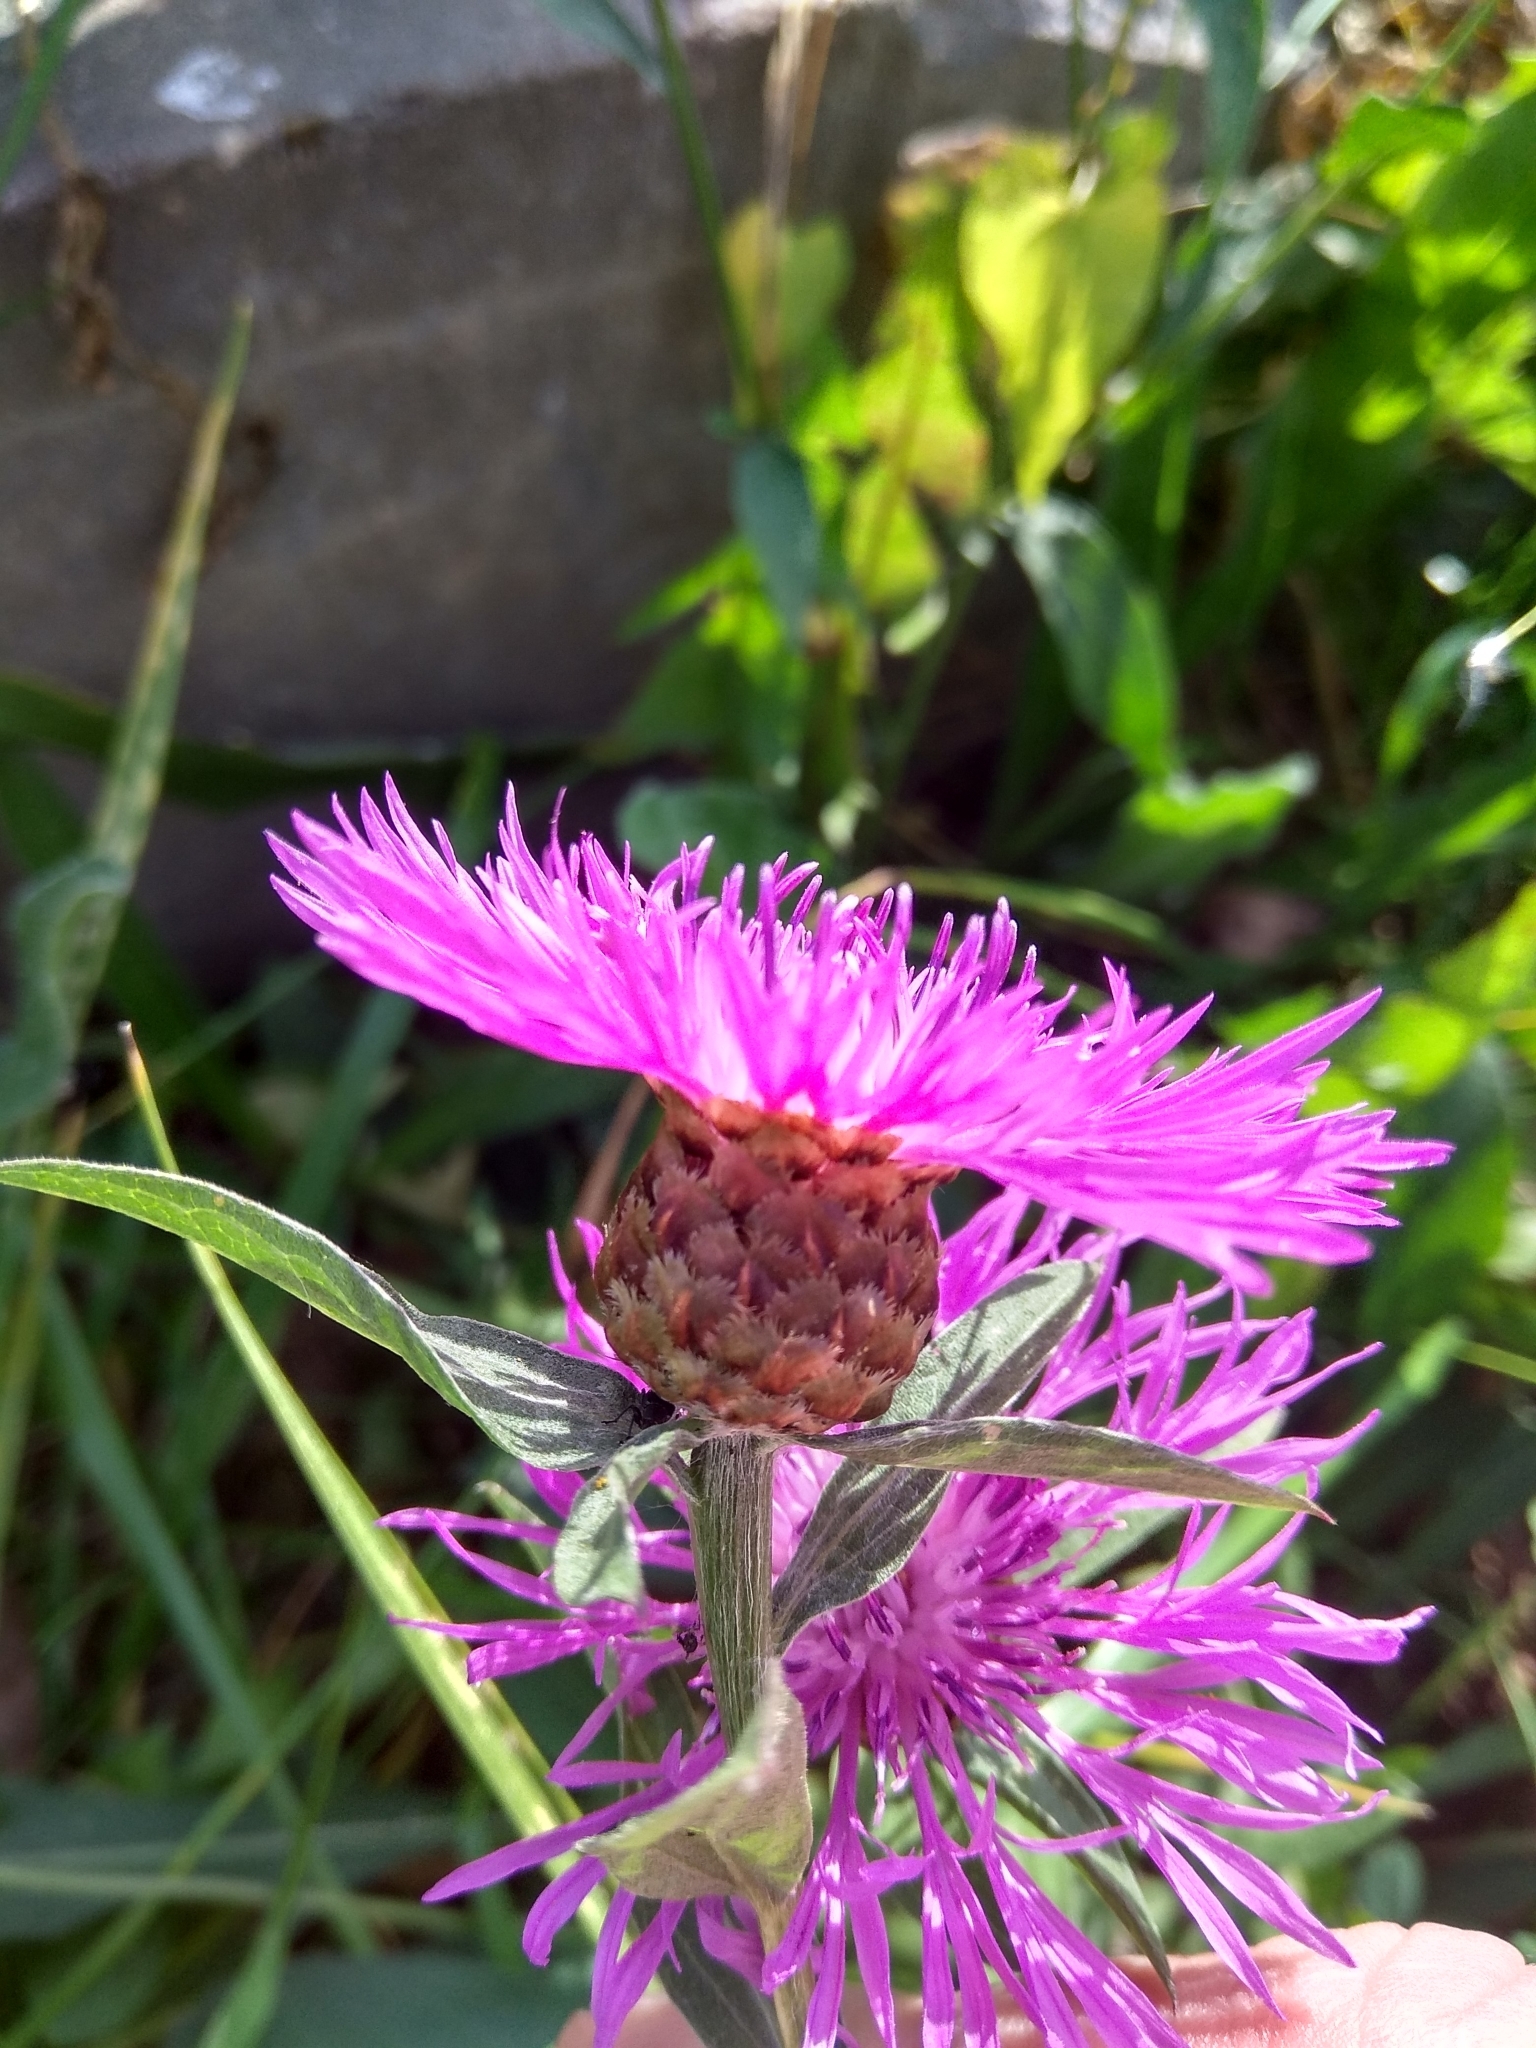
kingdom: Plantae
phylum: Tracheophyta
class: Magnoliopsida
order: Asterales
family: Asteraceae
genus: Centaurea
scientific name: Centaurea jacea
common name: Brown knapweed
